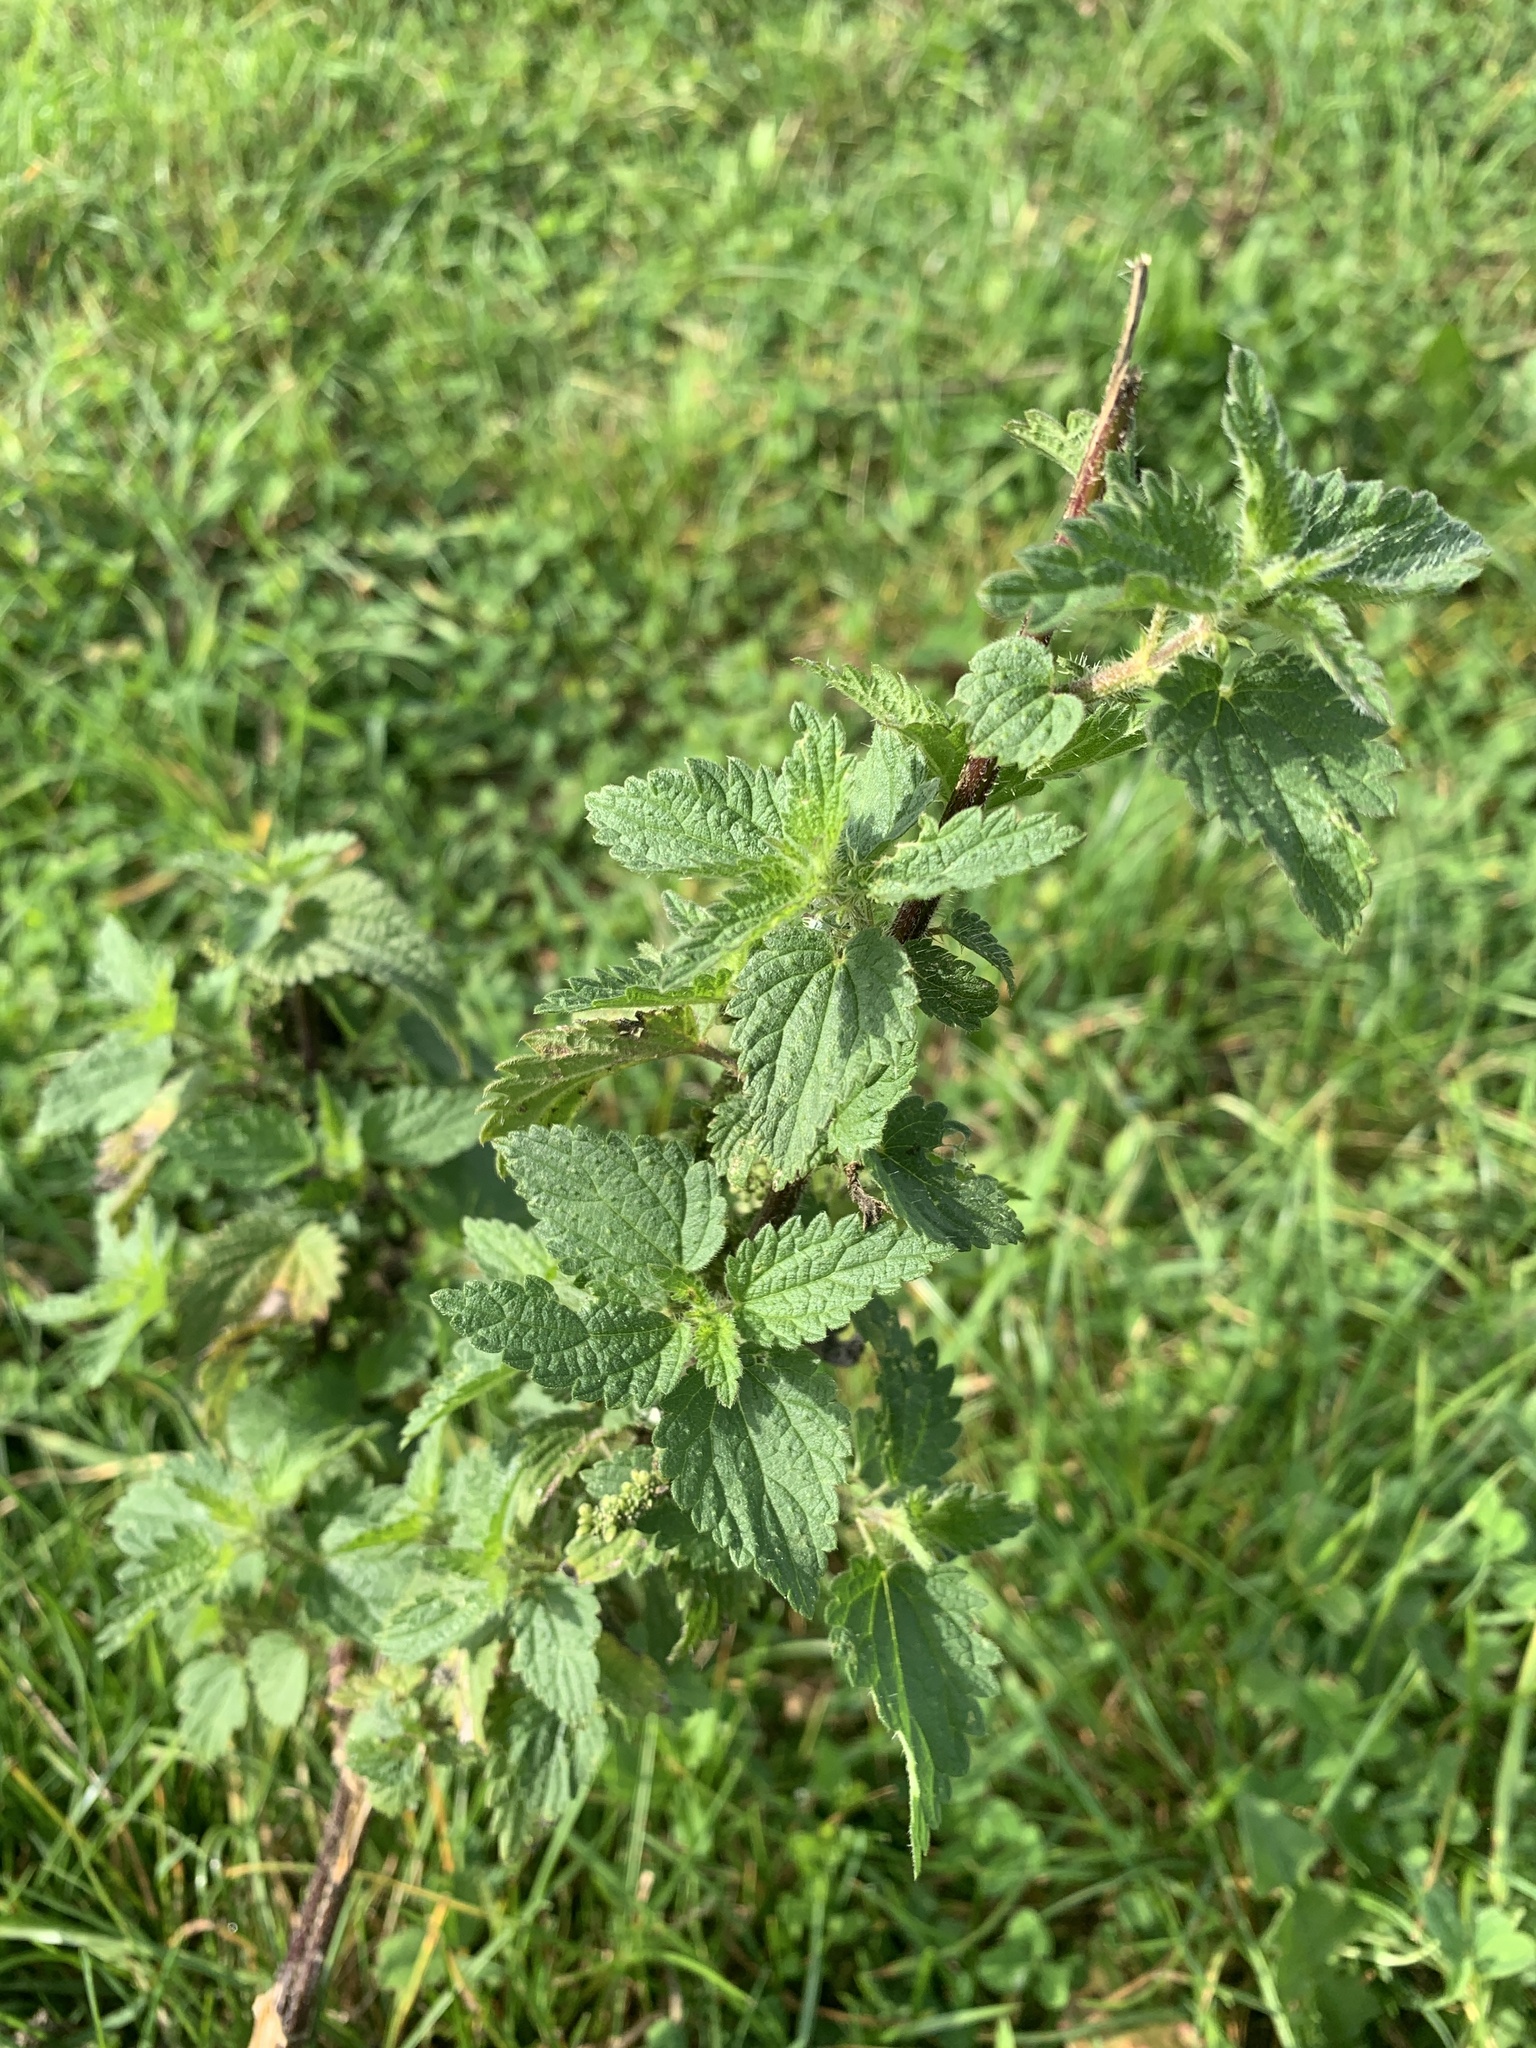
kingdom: Plantae
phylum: Tracheophyta
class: Magnoliopsida
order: Rosales
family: Urticaceae
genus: Urtica
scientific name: Urtica dioica
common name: Common nettle
